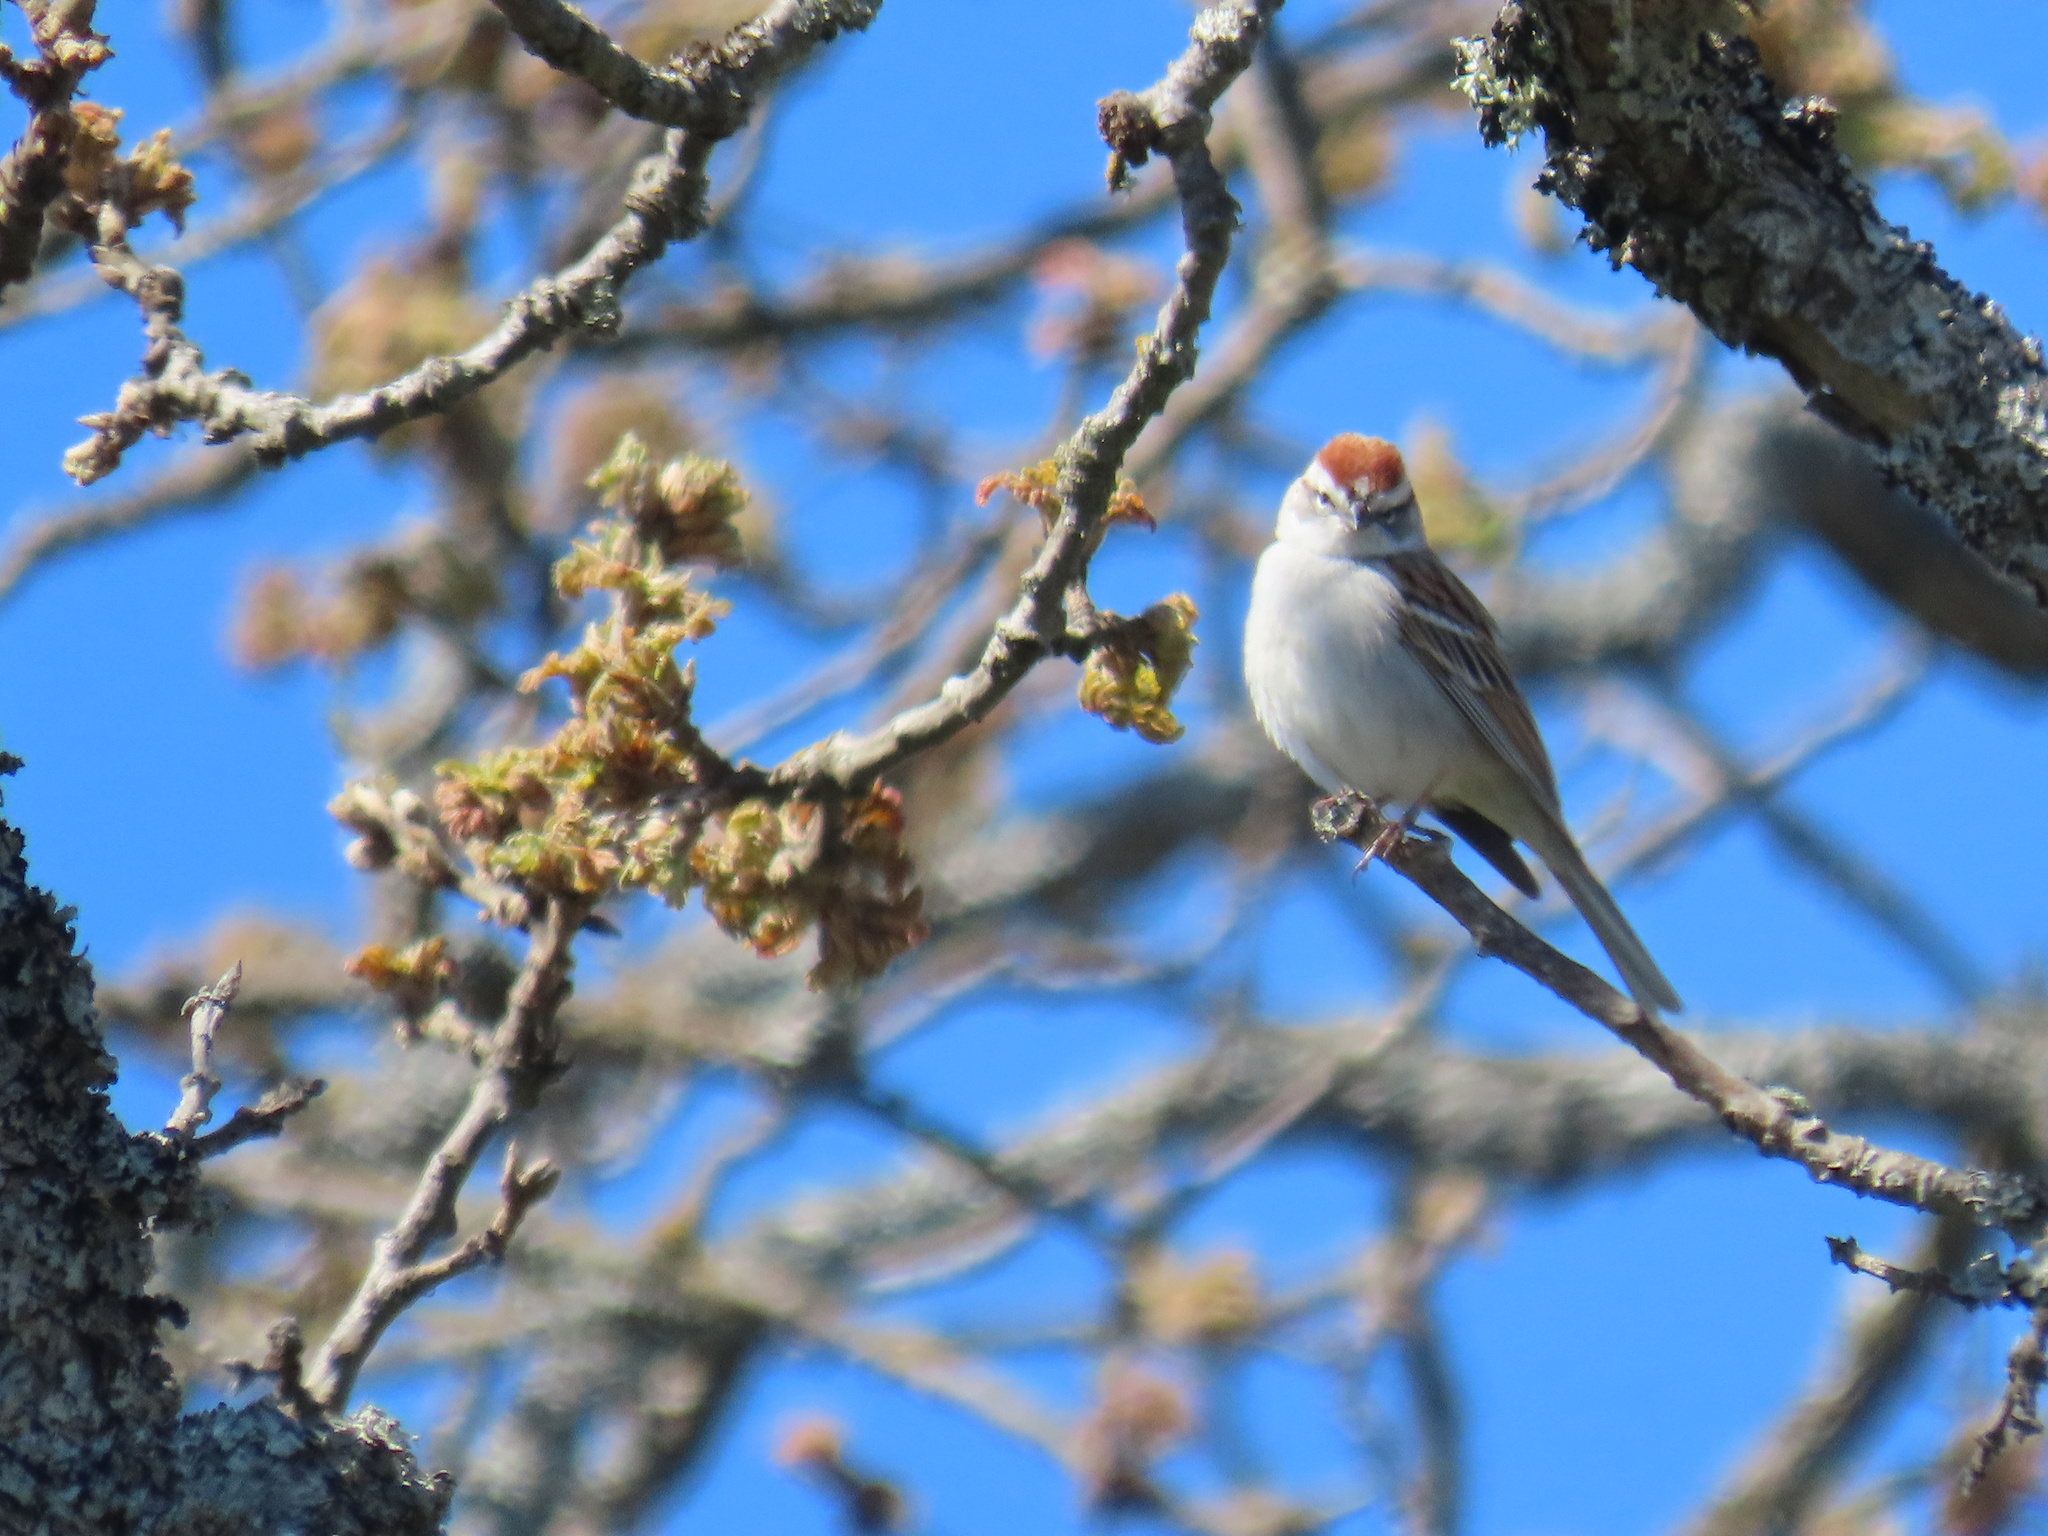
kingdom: Animalia
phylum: Chordata
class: Aves
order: Passeriformes
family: Passerellidae
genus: Spizella
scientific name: Spizella passerina
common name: Chipping sparrow
